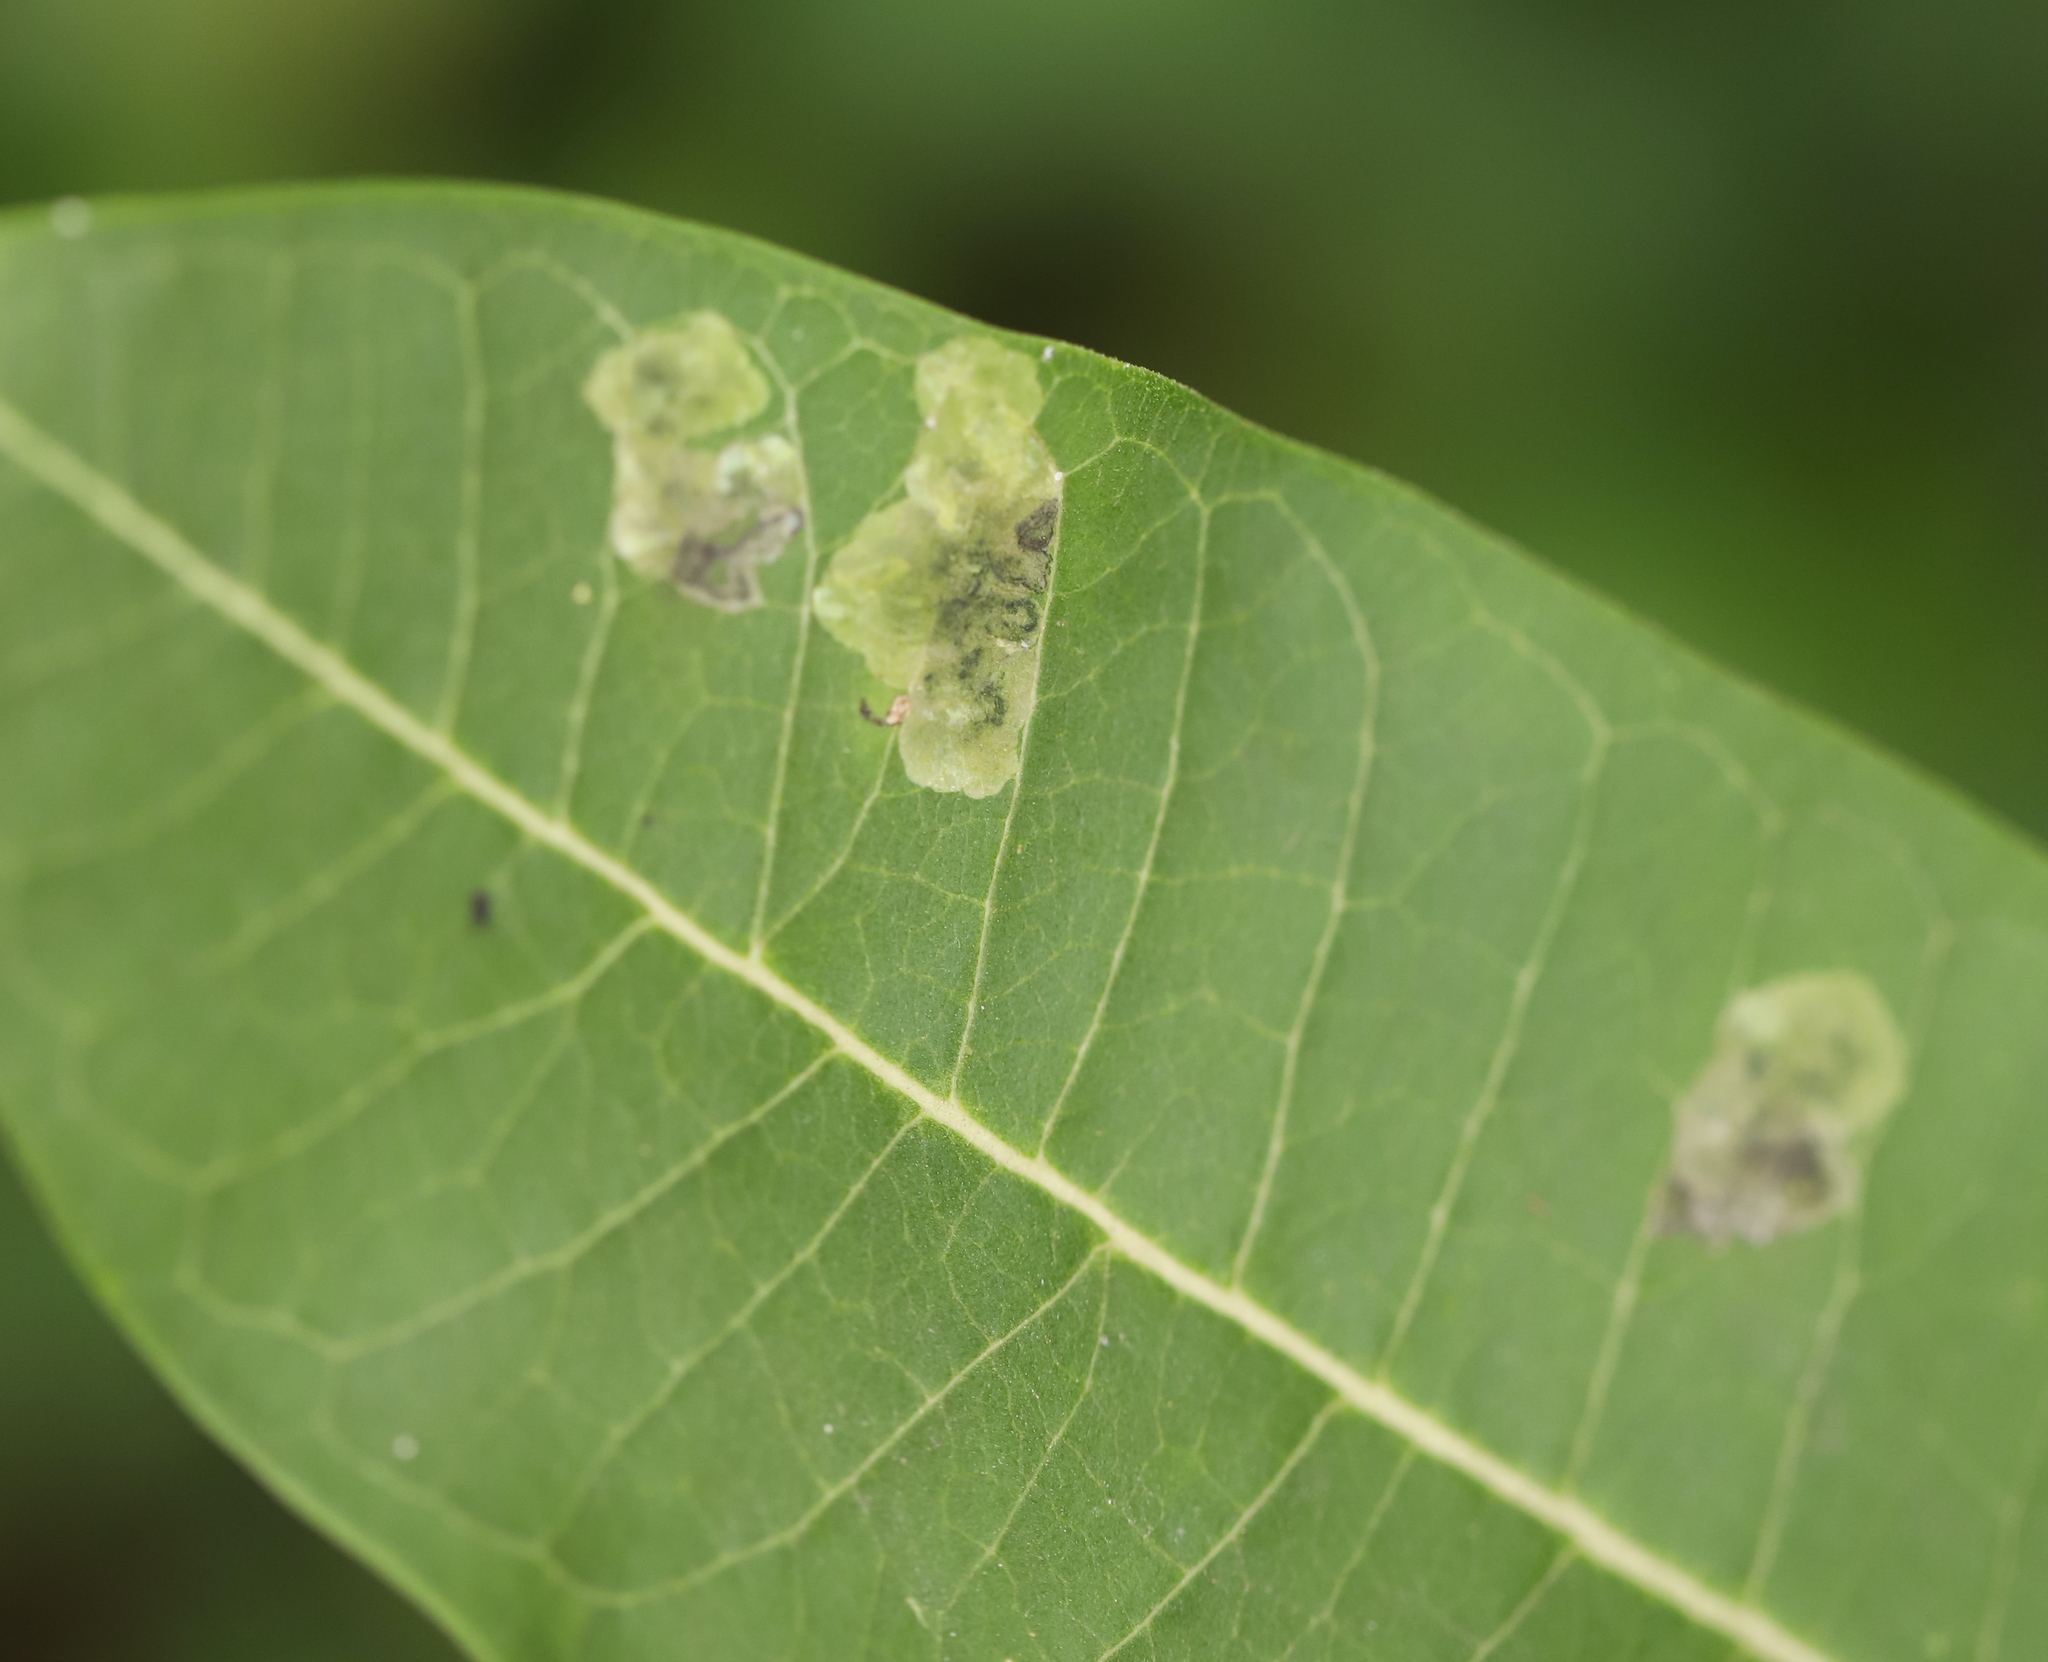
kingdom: Animalia
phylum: Arthropoda
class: Insecta
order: Diptera
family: Agromyzidae
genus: Liriomyza
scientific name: Liriomyza asclepiadis
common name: Milkweed leaf-miner fly
